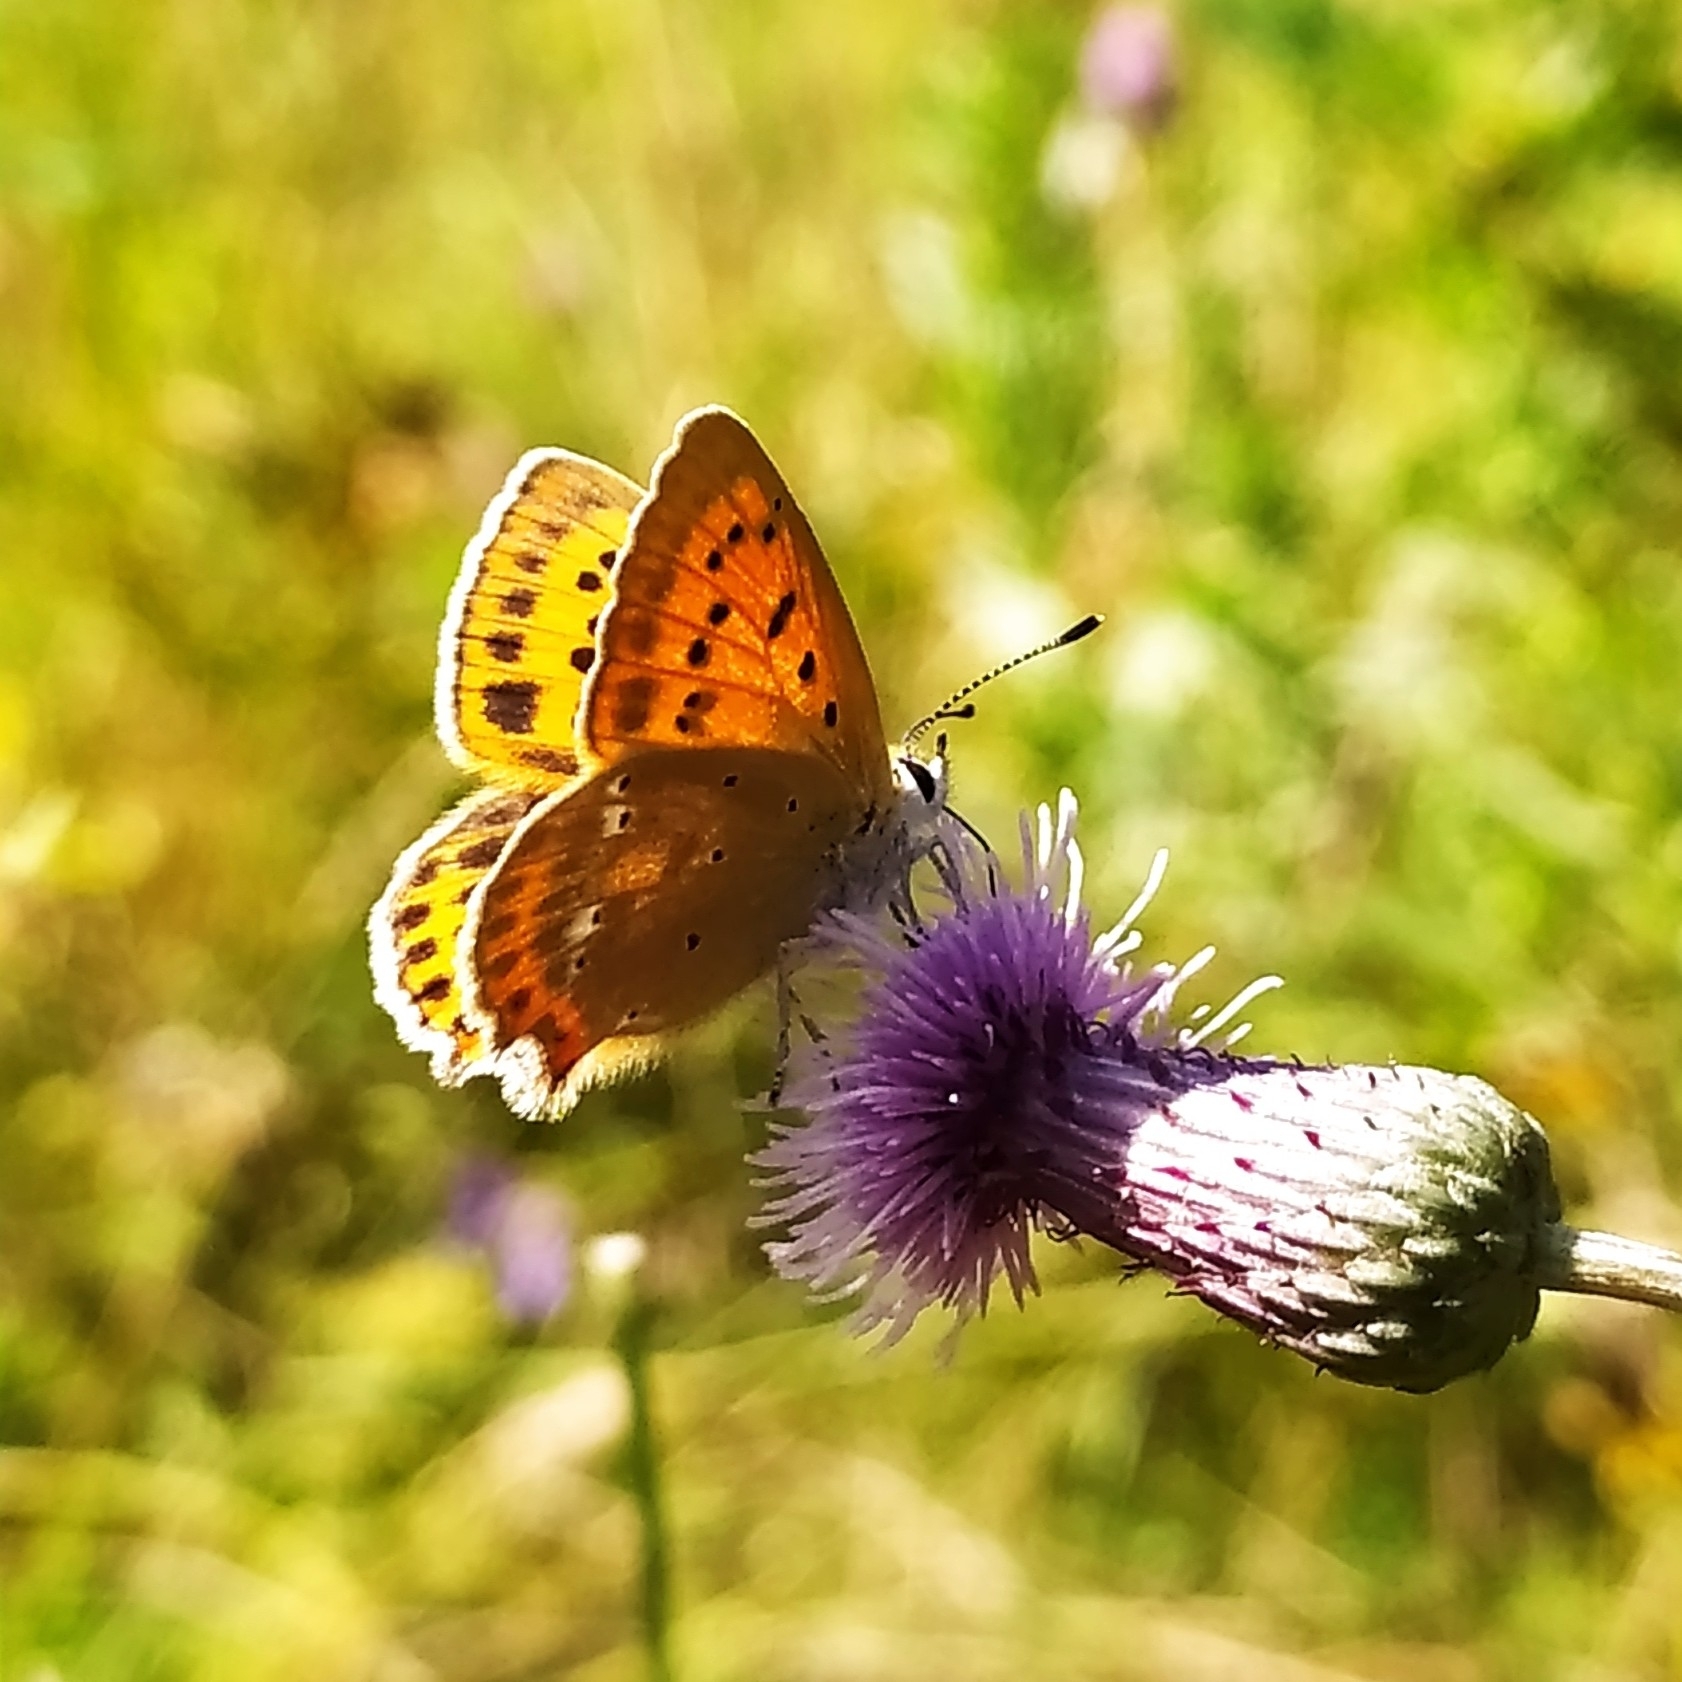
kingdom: Animalia
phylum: Arthropoda
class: Insecta
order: Lepidoptera
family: Lycaenidae
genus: Lycaena
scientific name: Lycaena virgaureae
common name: Scarce copper
